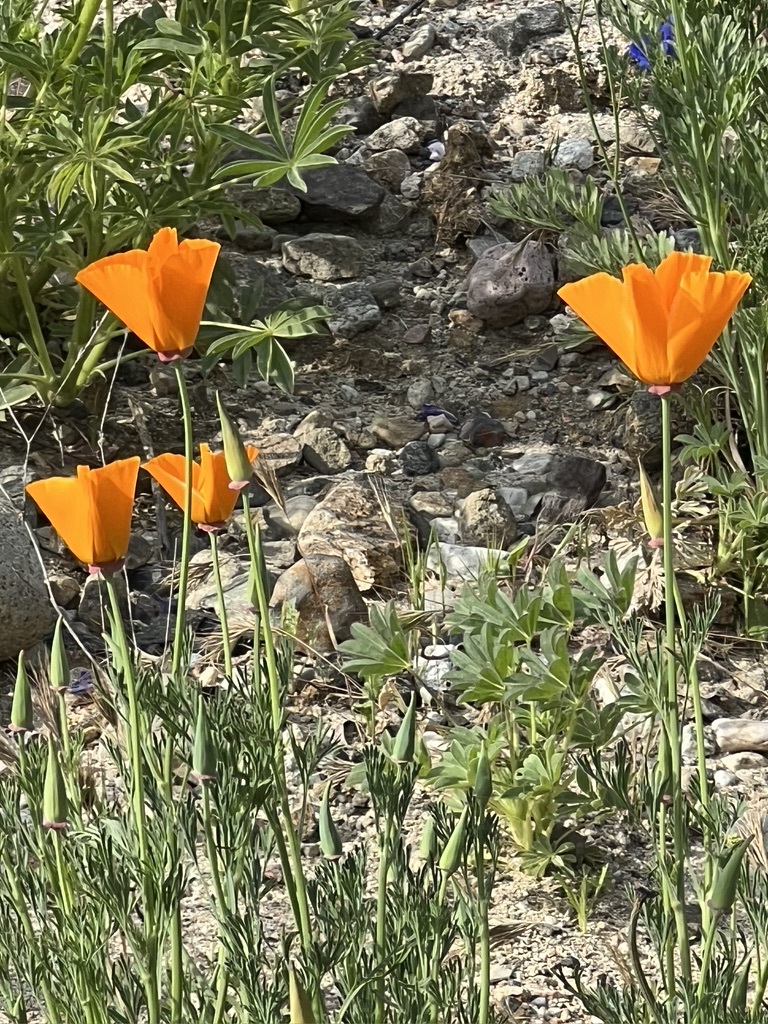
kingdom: Plantae
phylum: Tracheophyta
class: Magnoliopsida
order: Ranunculales
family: Papaveraceae
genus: Eschscholzia
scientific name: Eschscholzia californica
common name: California poppy
